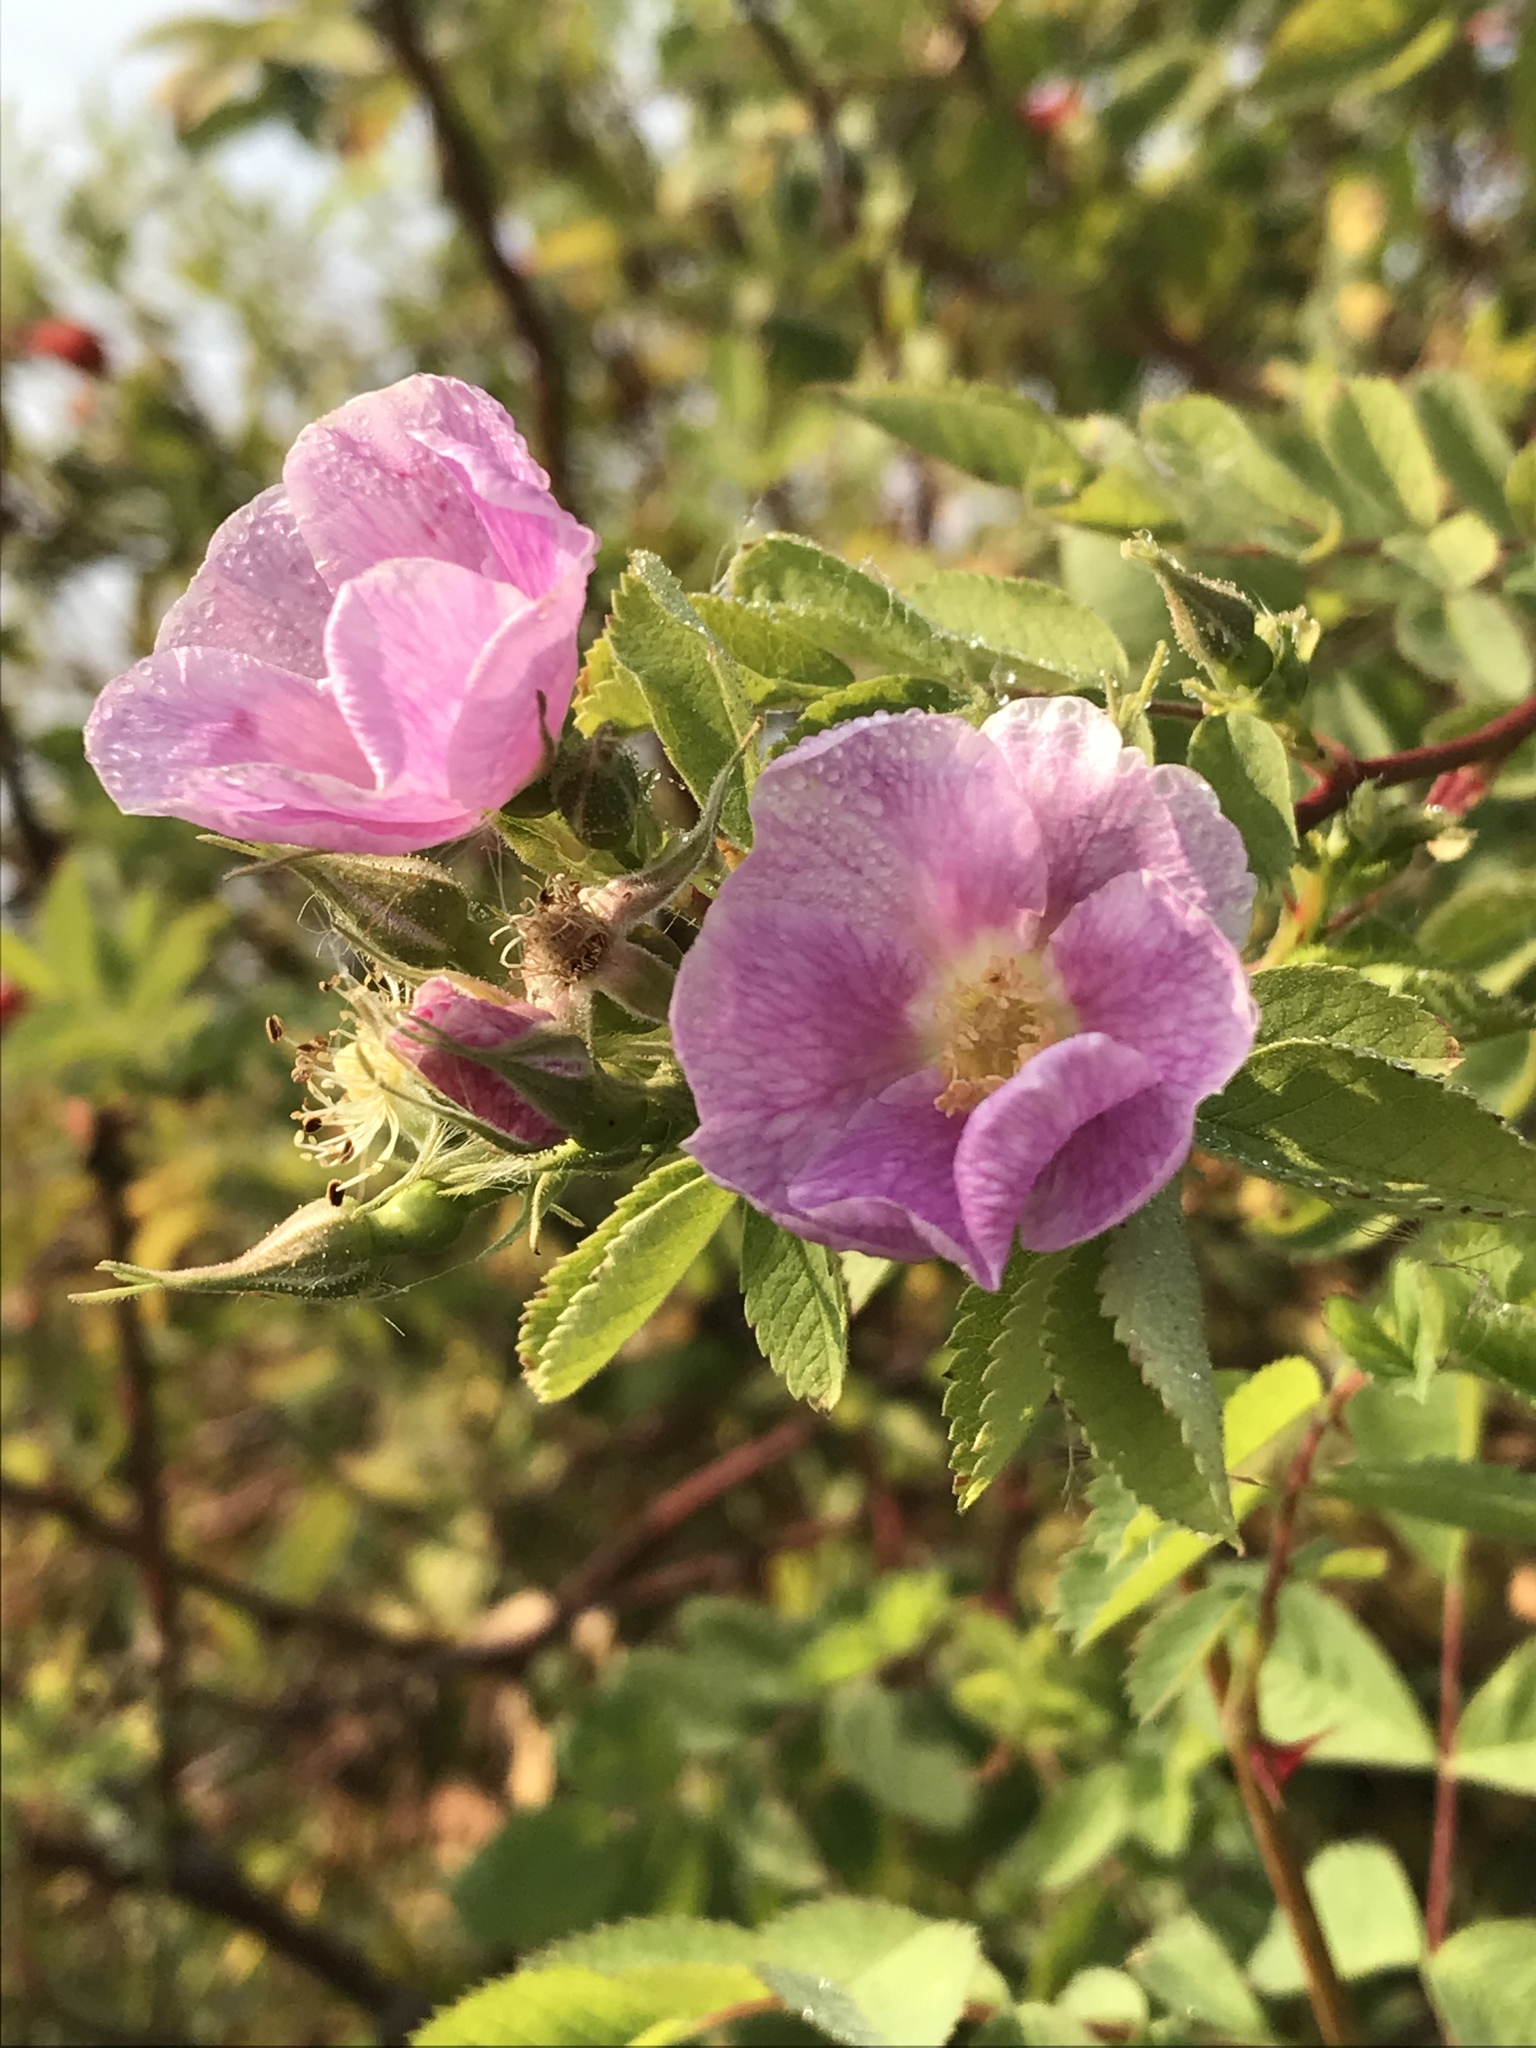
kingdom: Plantae
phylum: Tracheophyta
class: Magnoliopsida
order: Rosales
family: Rosaceae
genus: Rosa
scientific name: Rosa californica
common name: California rose
